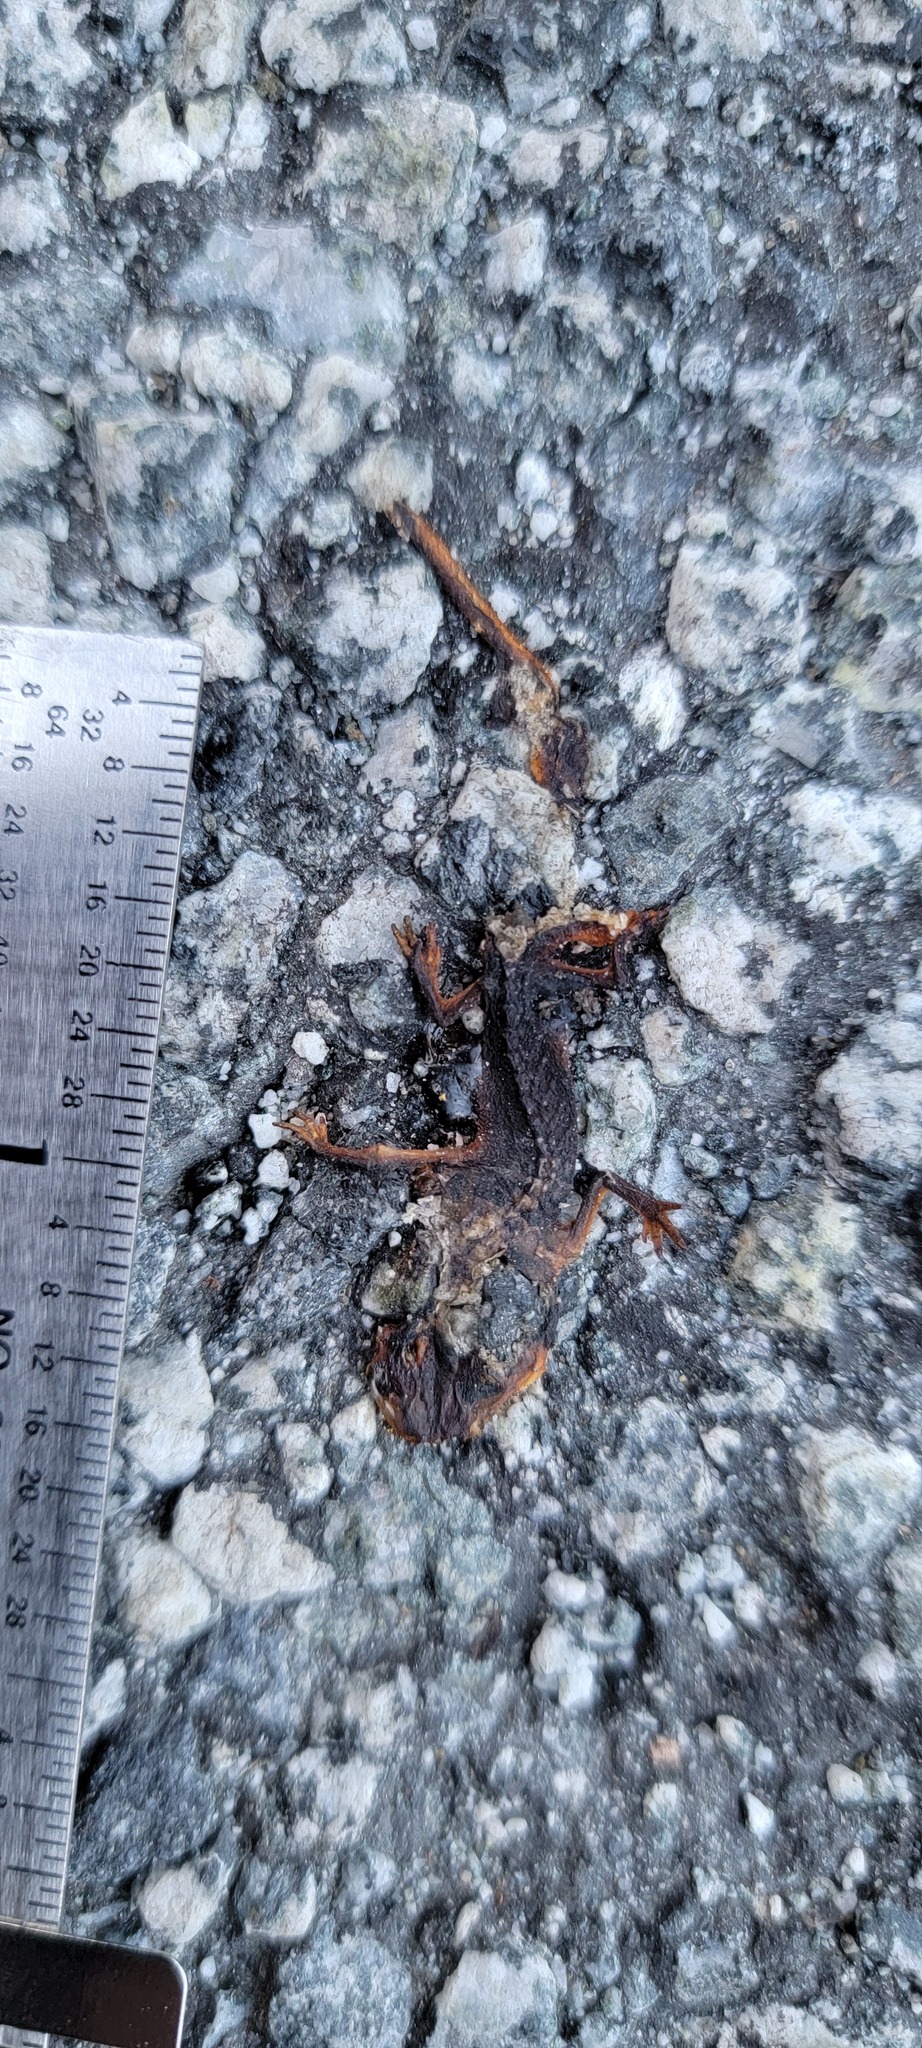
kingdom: Animalia
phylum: Chordata
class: Amphibia
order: Caudata
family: Salamandridae
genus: Taricha
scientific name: Taricha
